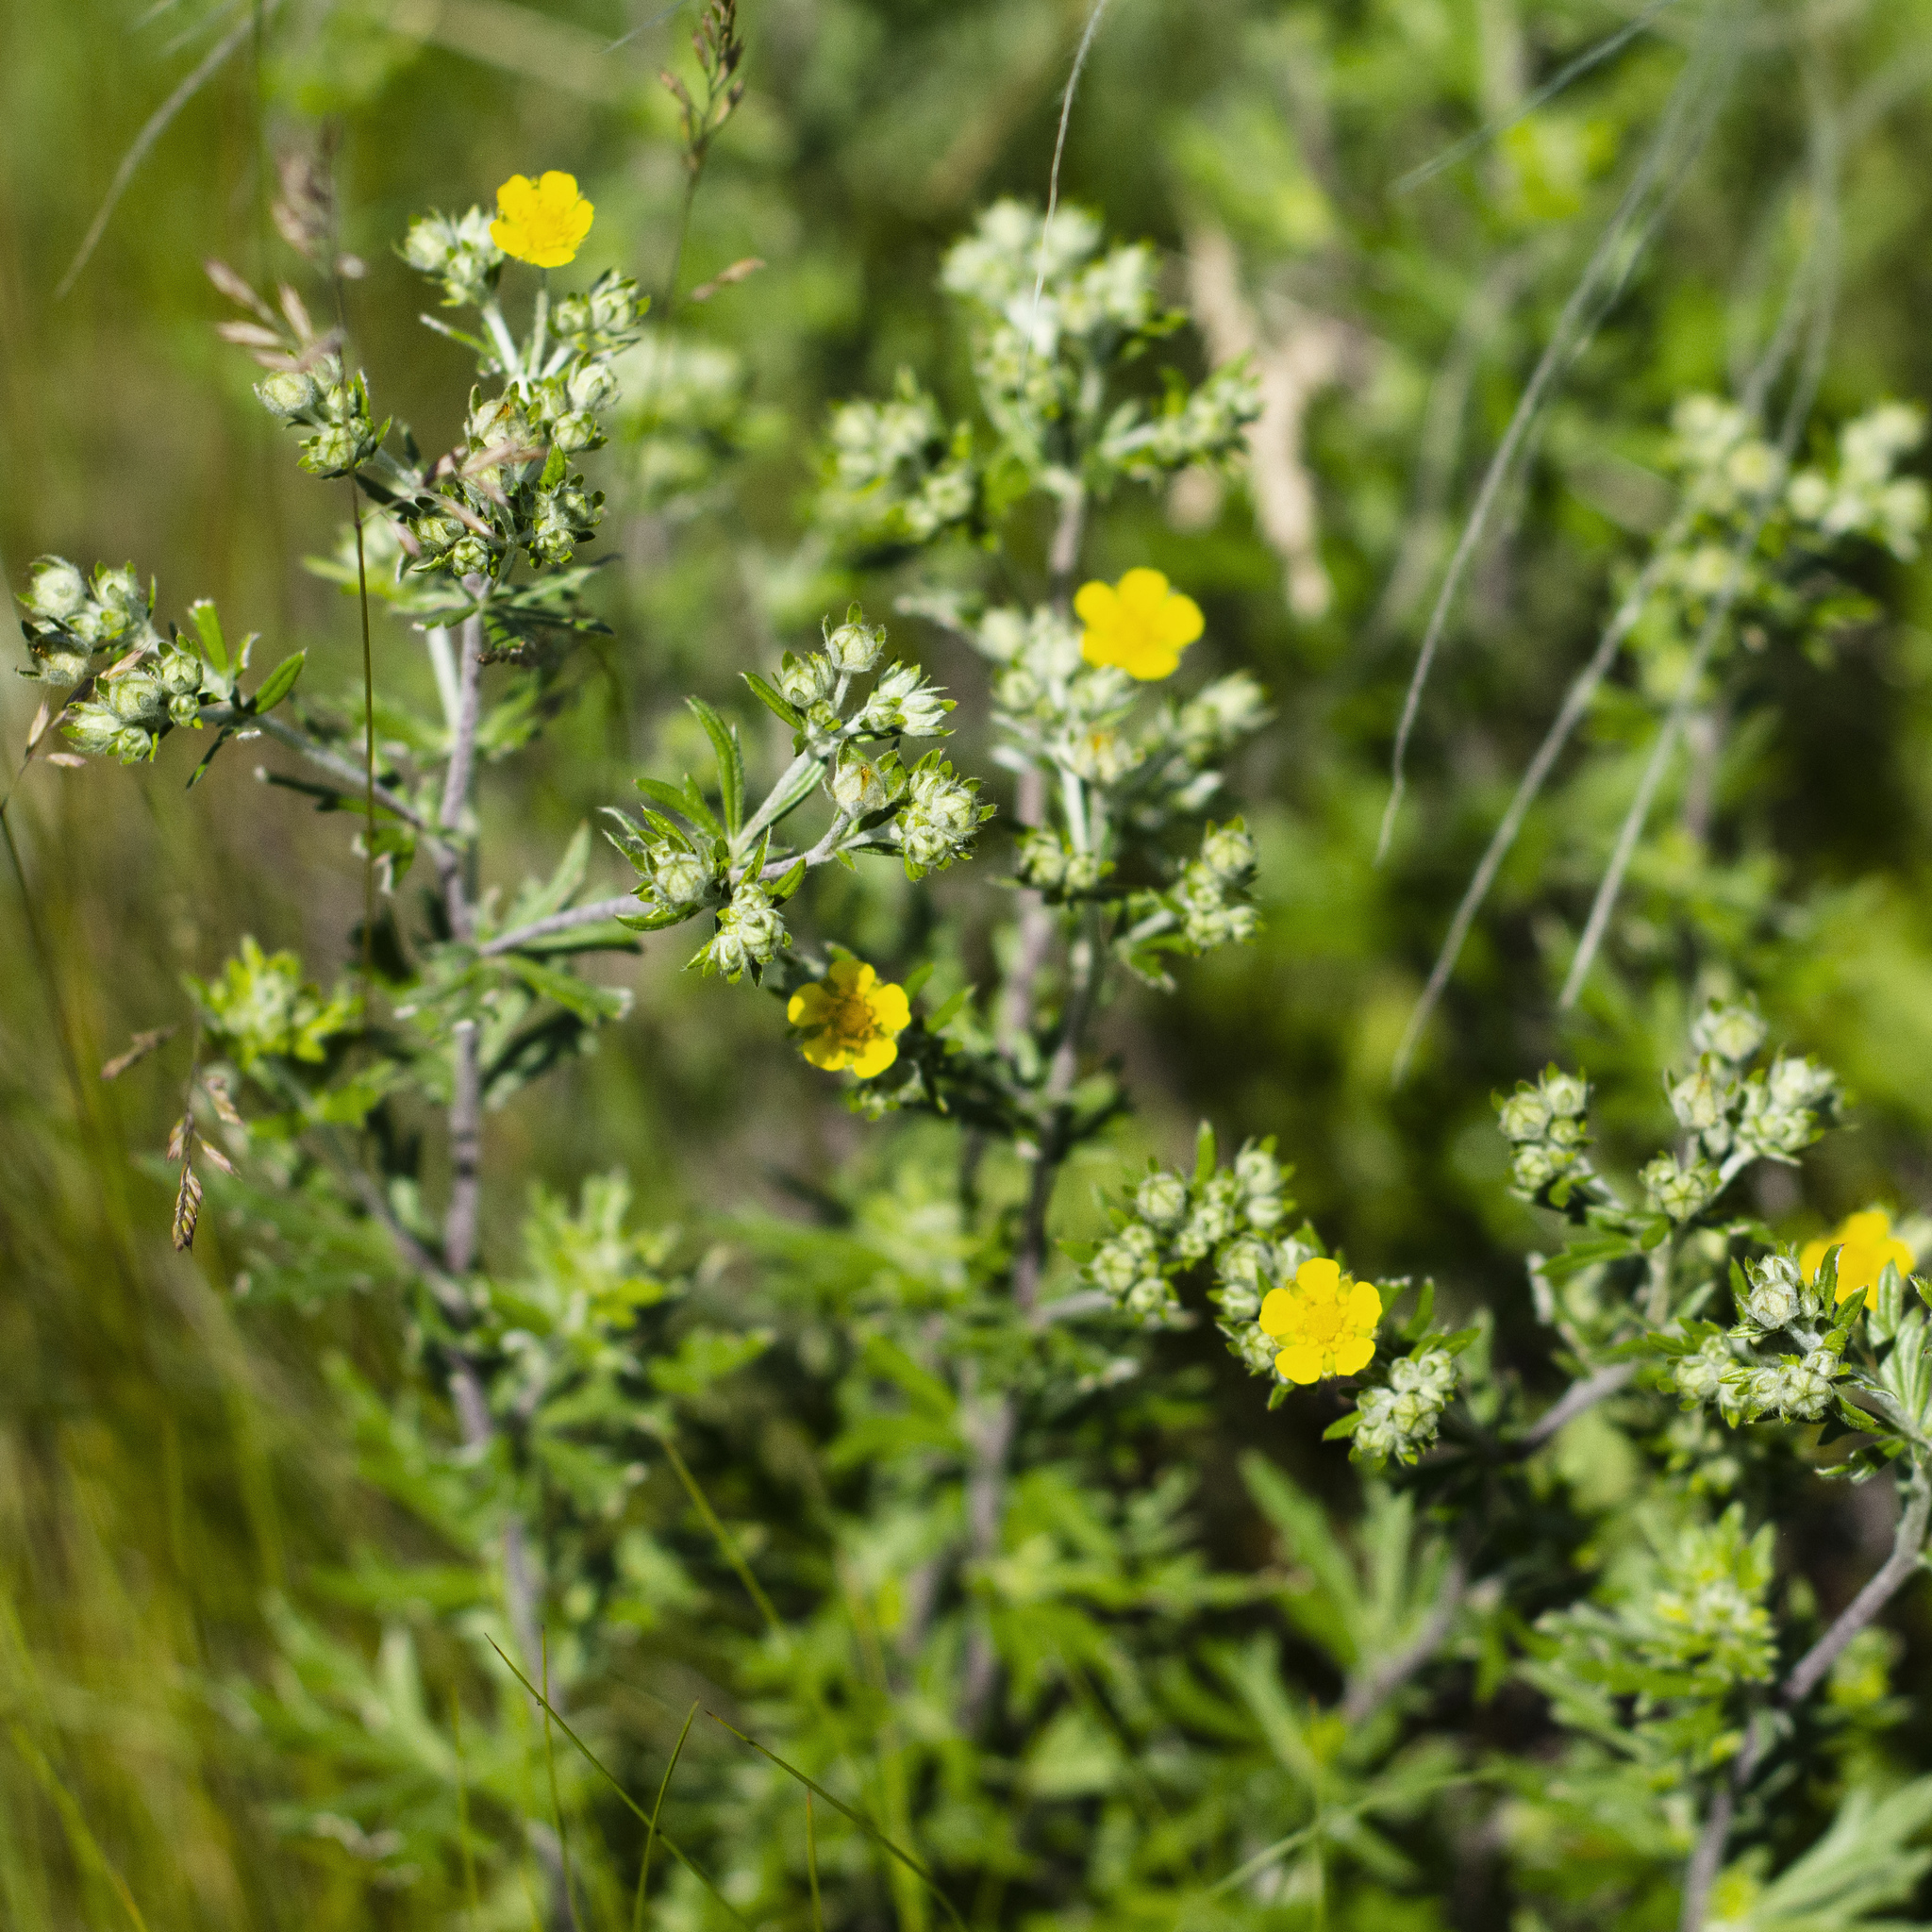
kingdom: Plantae
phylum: Tracheophyta
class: Magnoliopsida
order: Rosales
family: Rosaceae
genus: Potentilla
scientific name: Potentilla argentea
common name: Hoary cinquefoil
